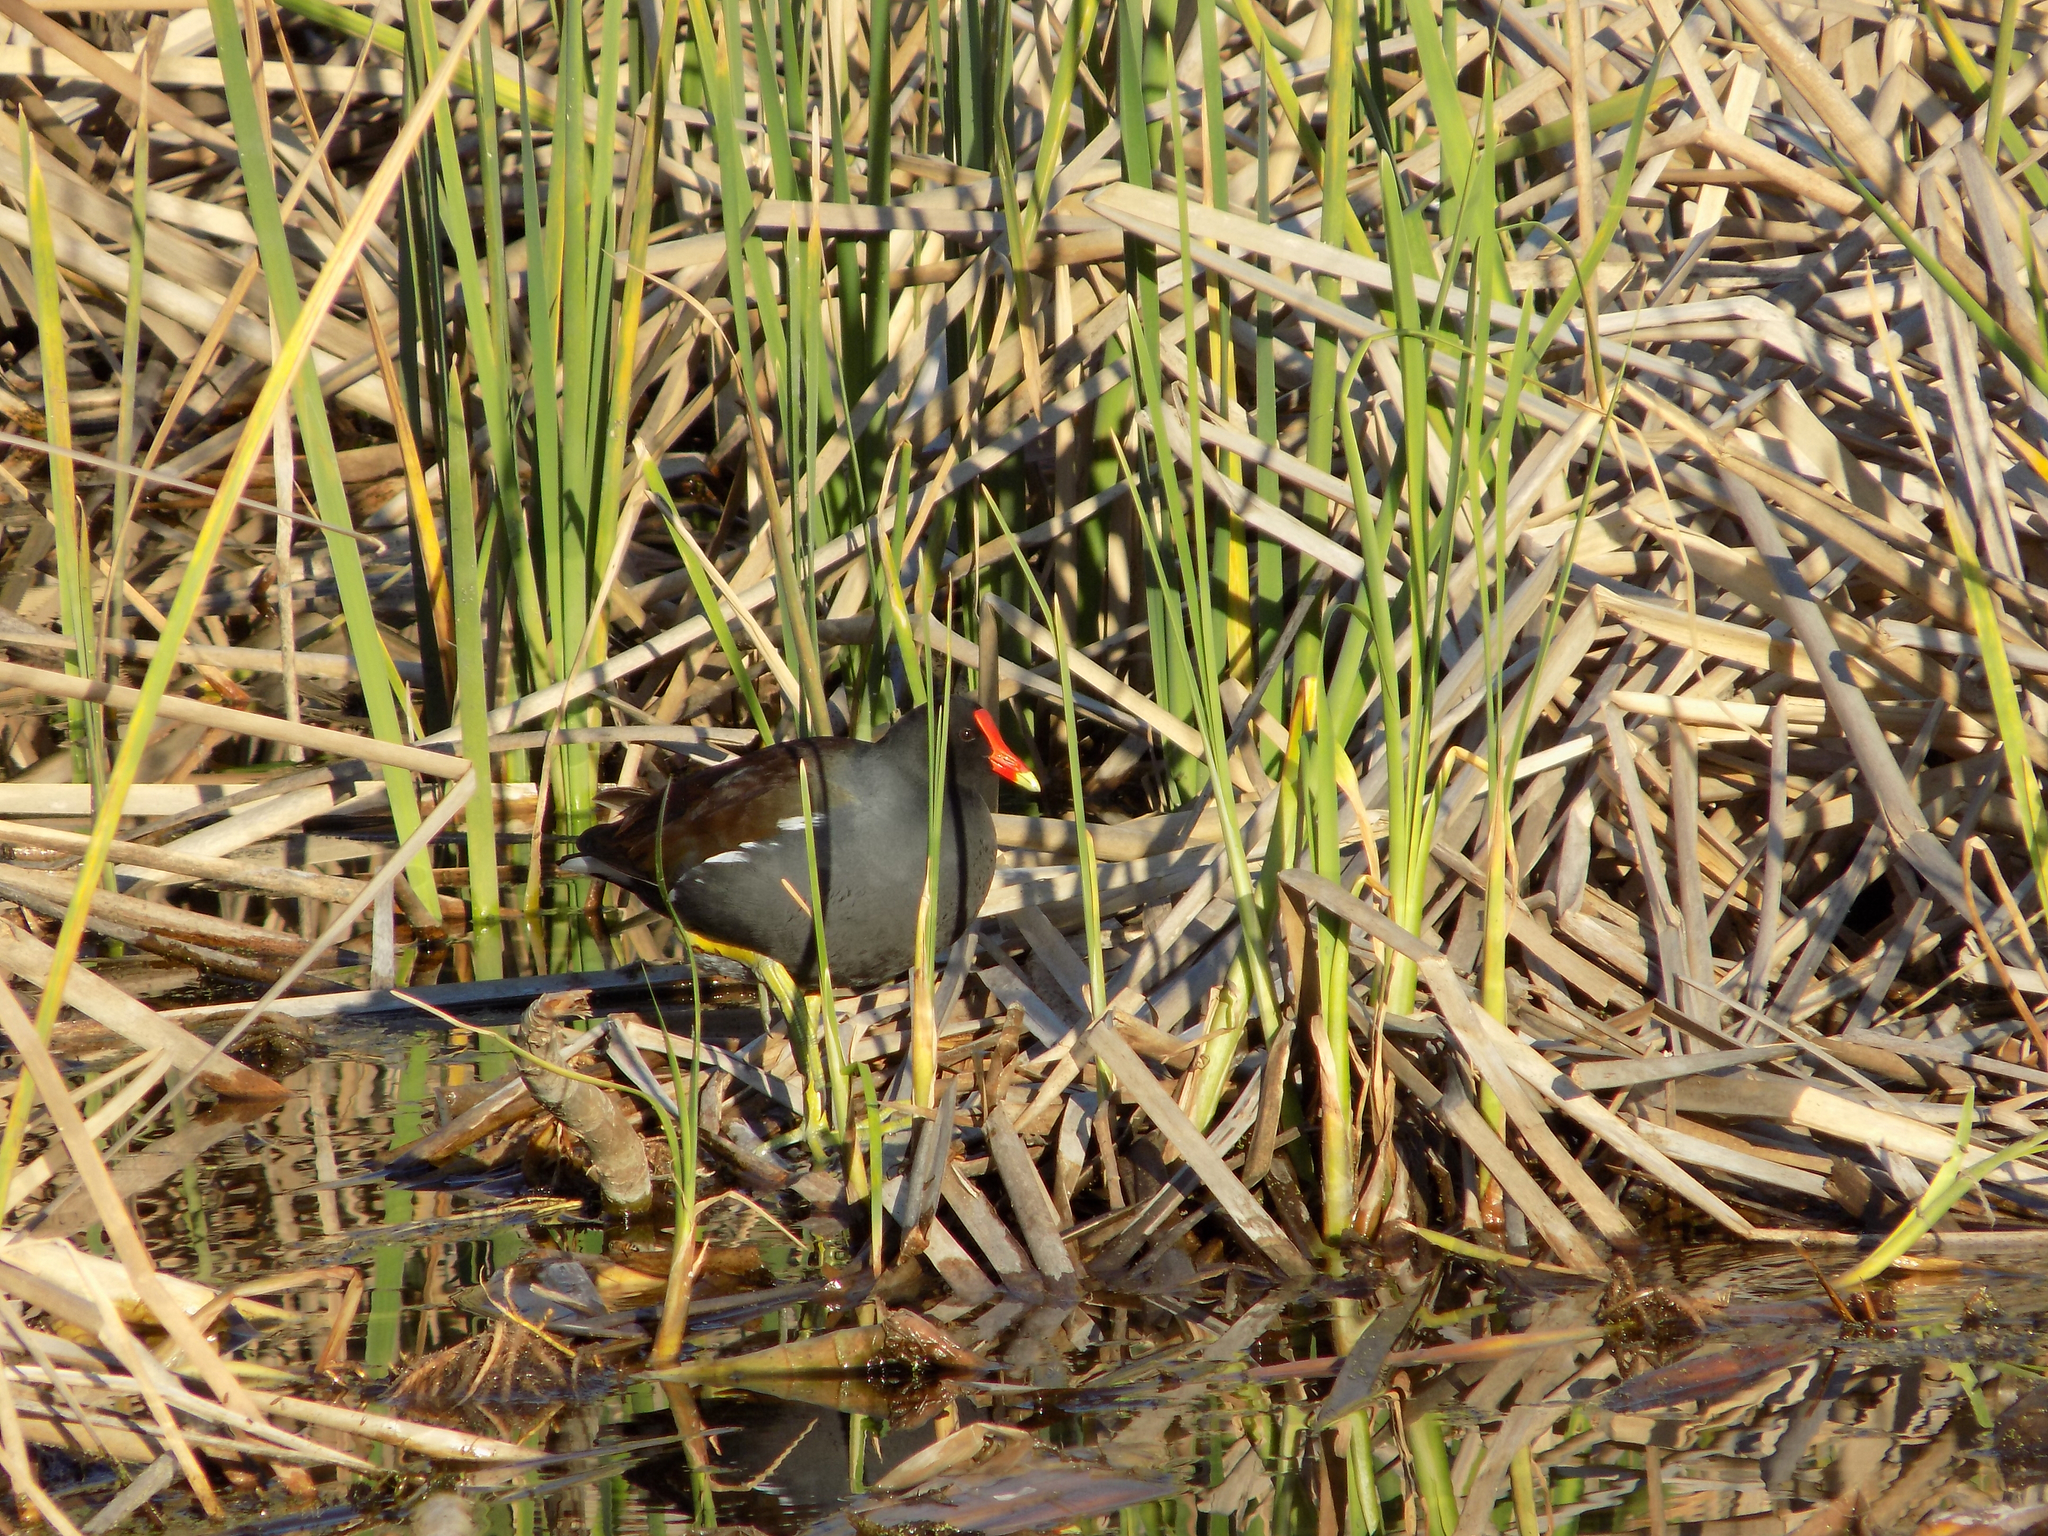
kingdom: Animalia
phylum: Chordata
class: Aves
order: Gruiformes
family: Rallidae
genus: Gallinula
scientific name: Gallinula chloropus
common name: Common moorhen
